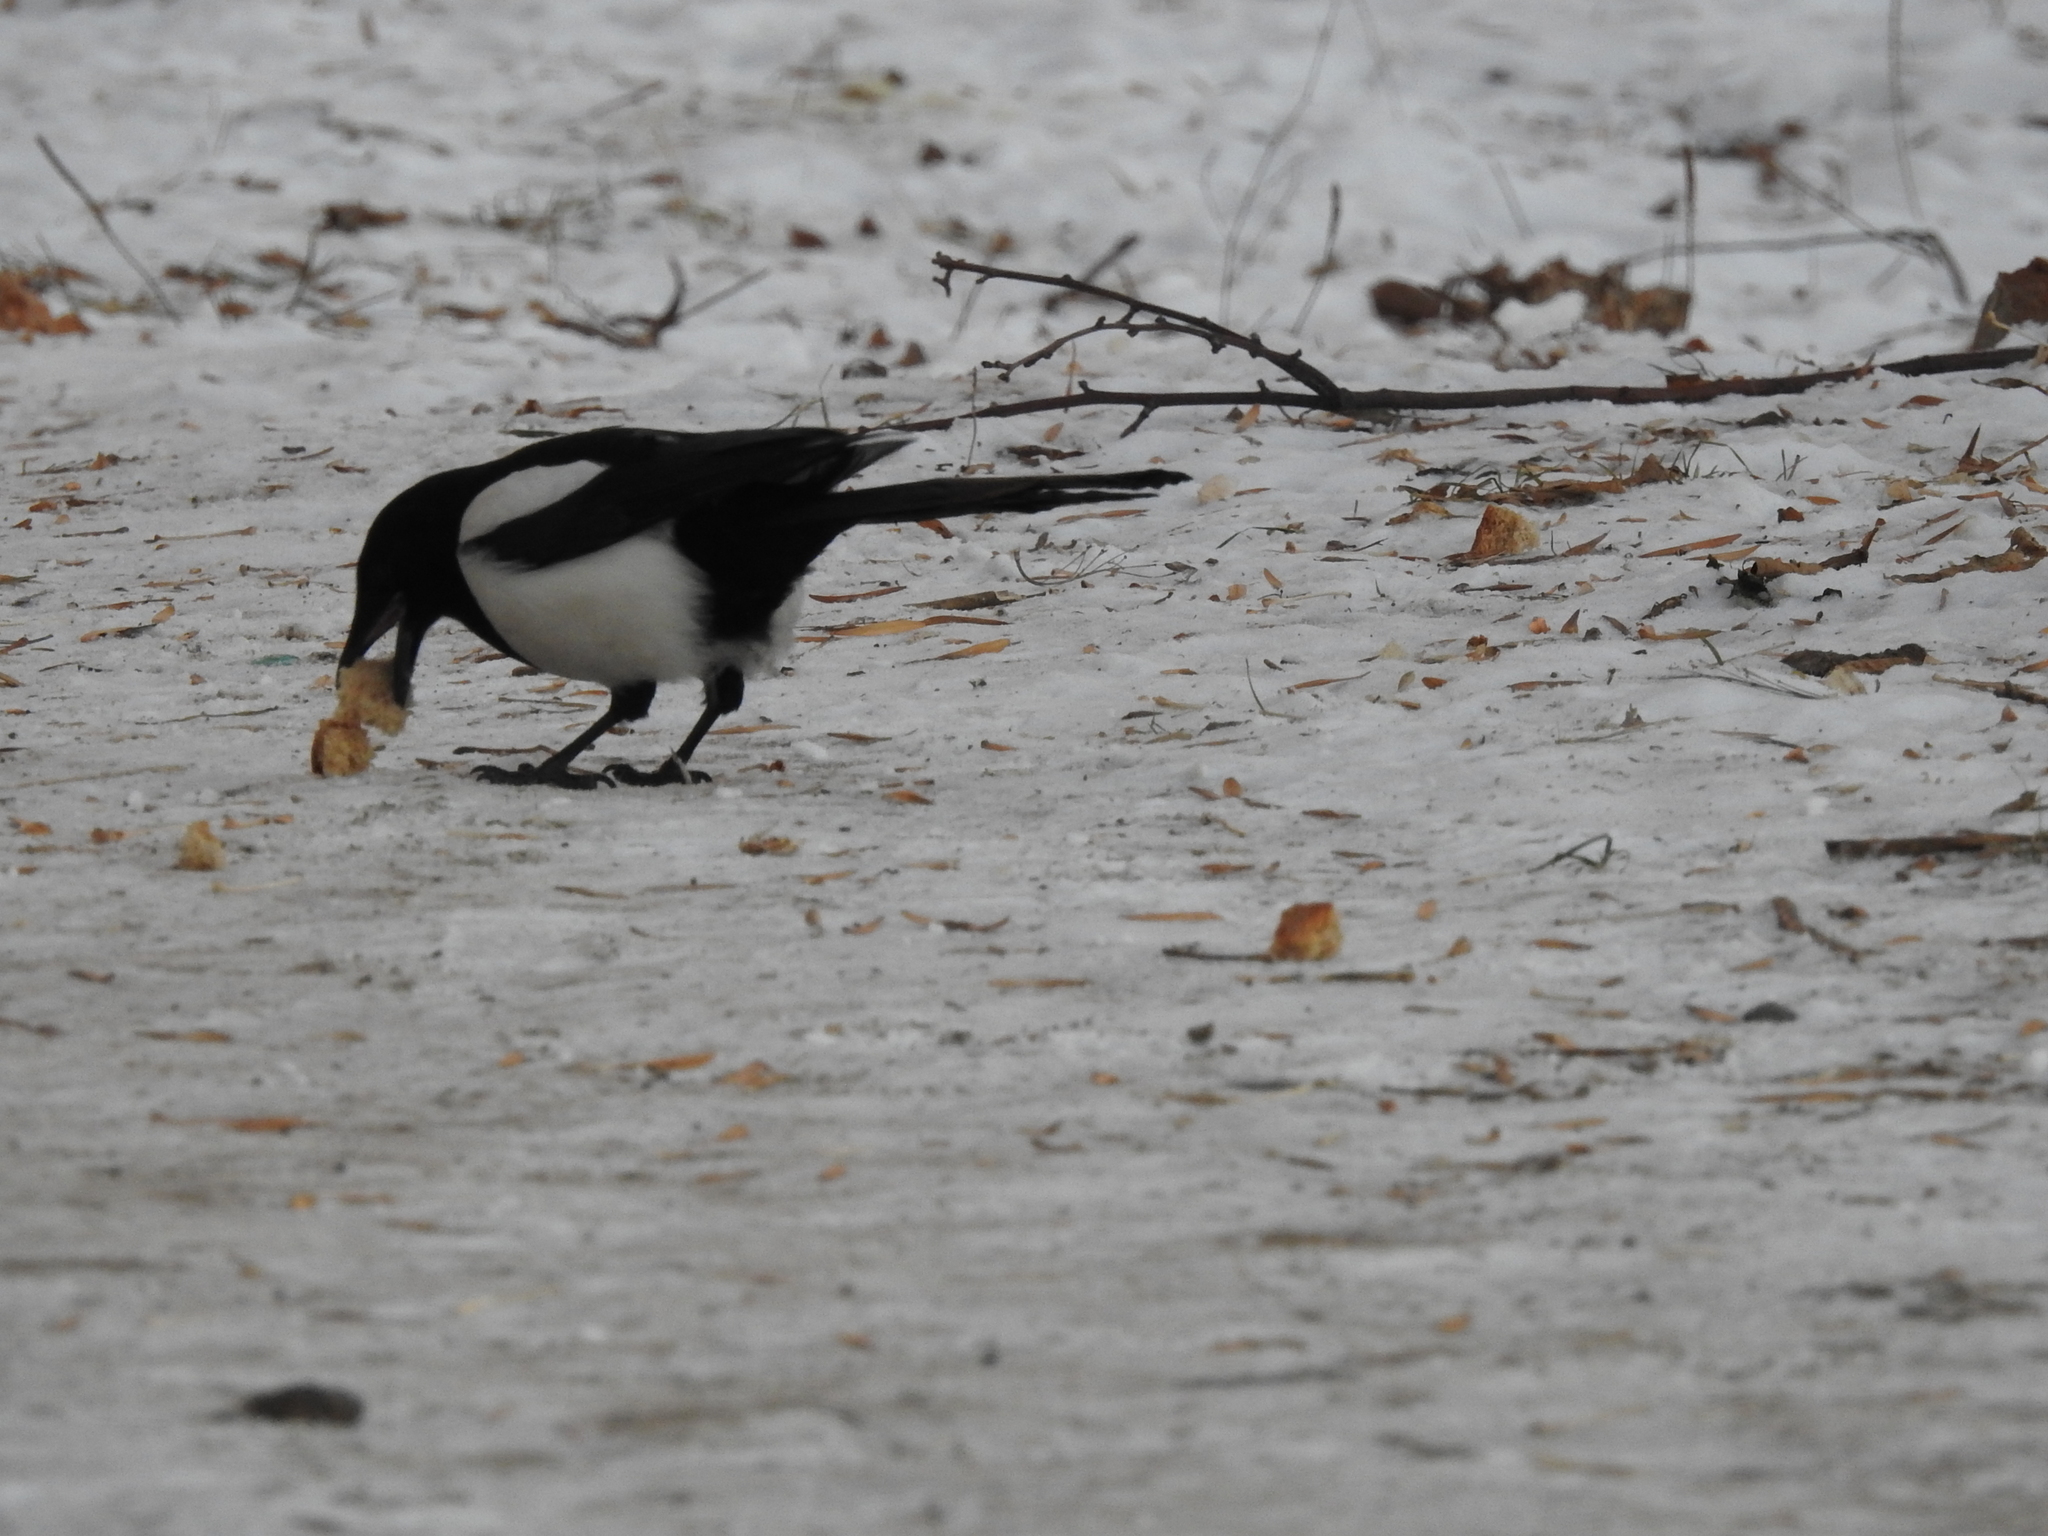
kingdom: Animalia
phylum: Chordata
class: Aves
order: Passeriformes
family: Corvidae
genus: Pica
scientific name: Pica pica
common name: Eurasian magpie
